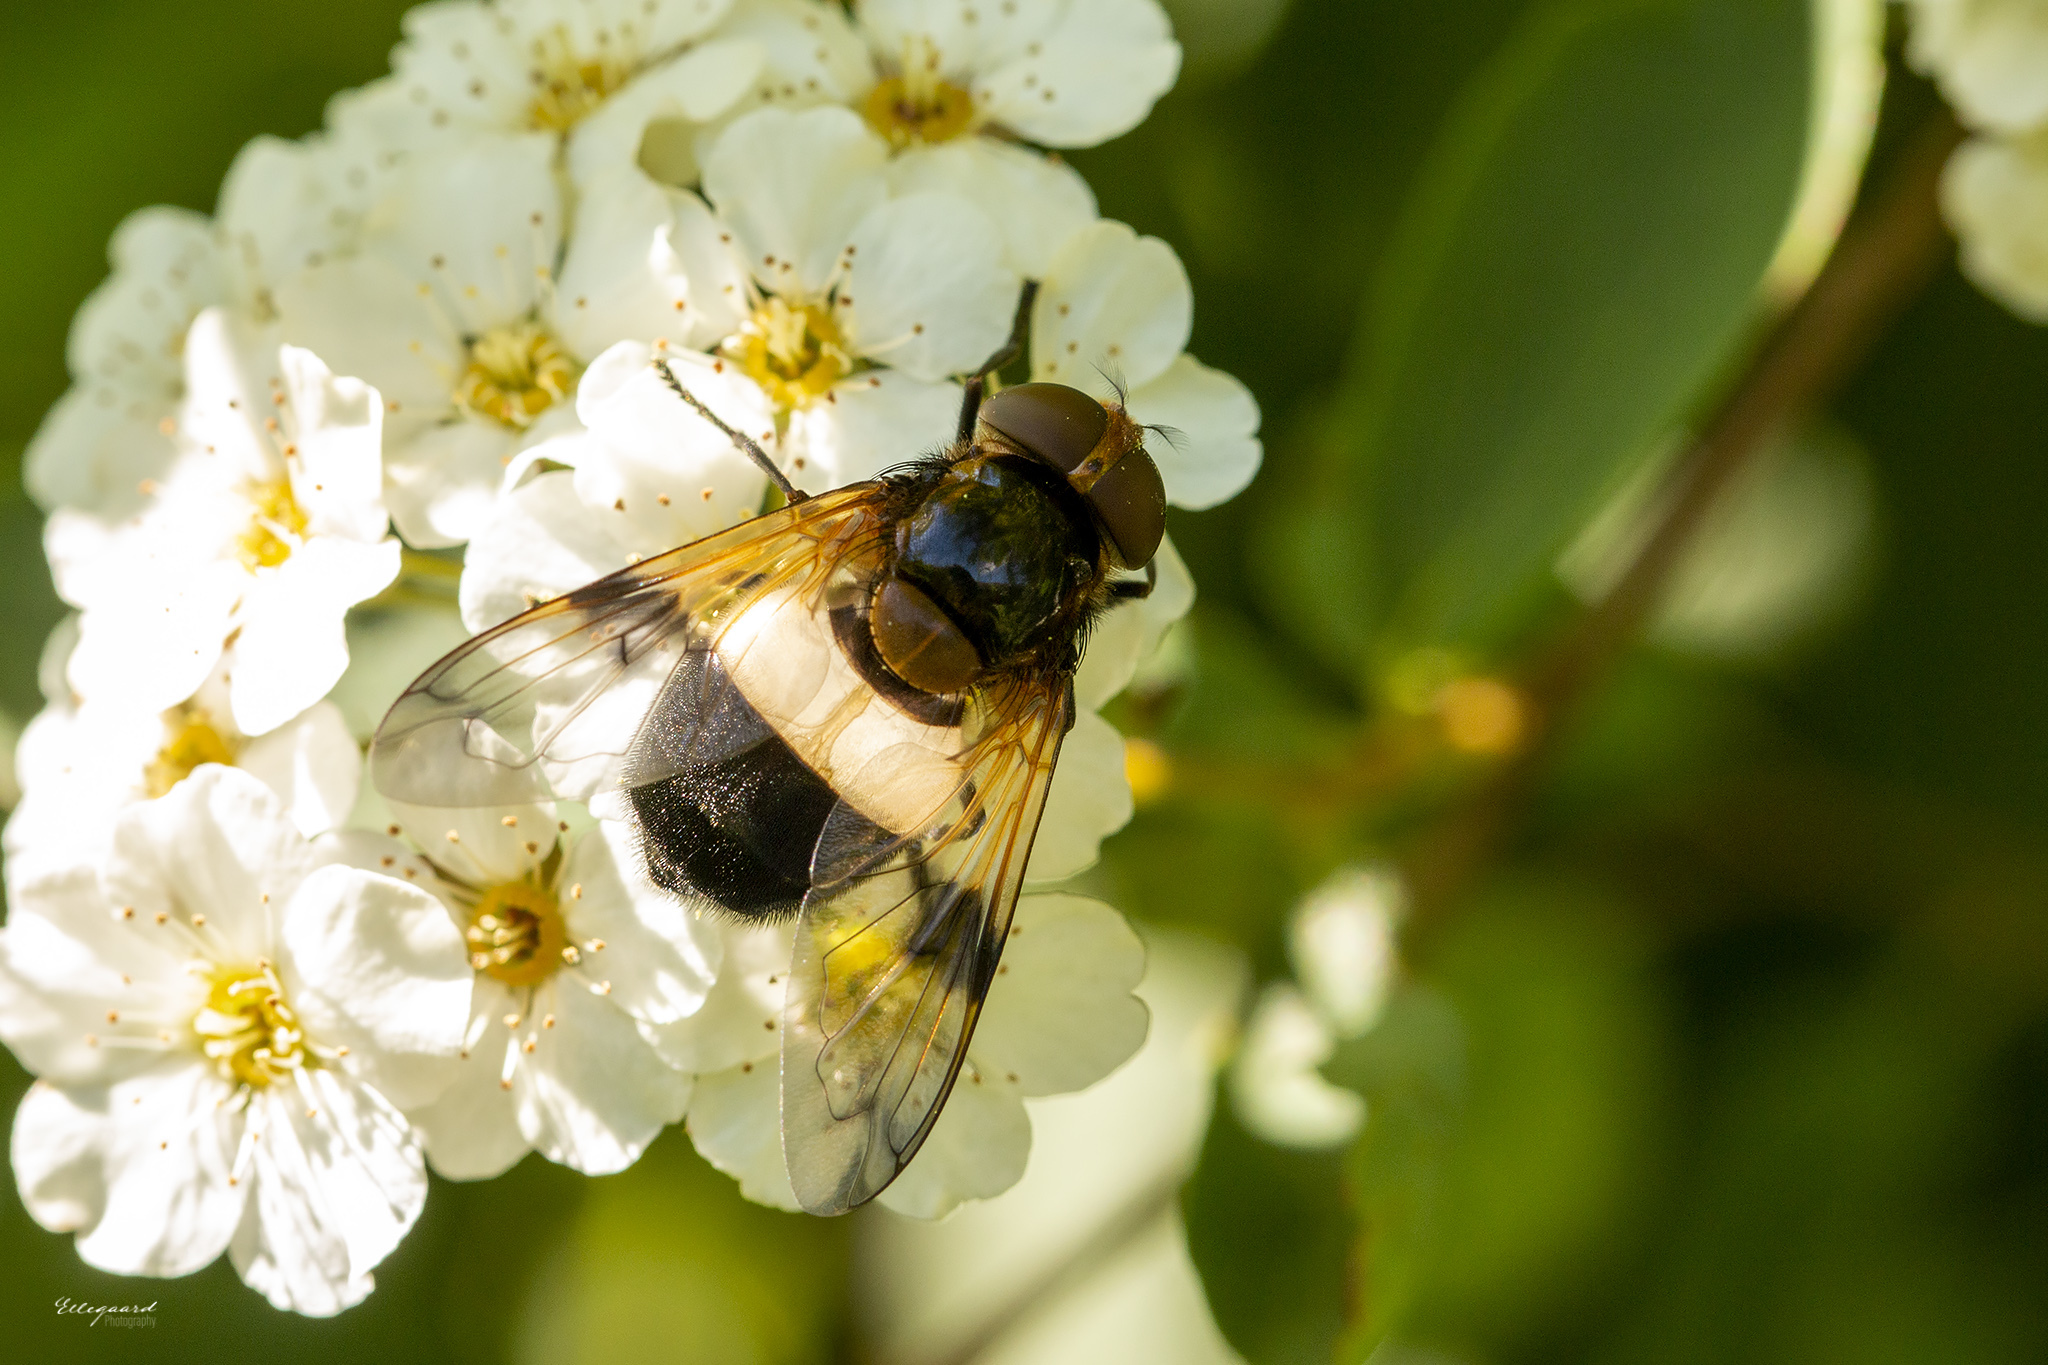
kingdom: Animalia
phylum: Arthropoda
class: Insecta
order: Diptera
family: Syrphidae
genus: Volucella
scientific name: Volucella pellucens
